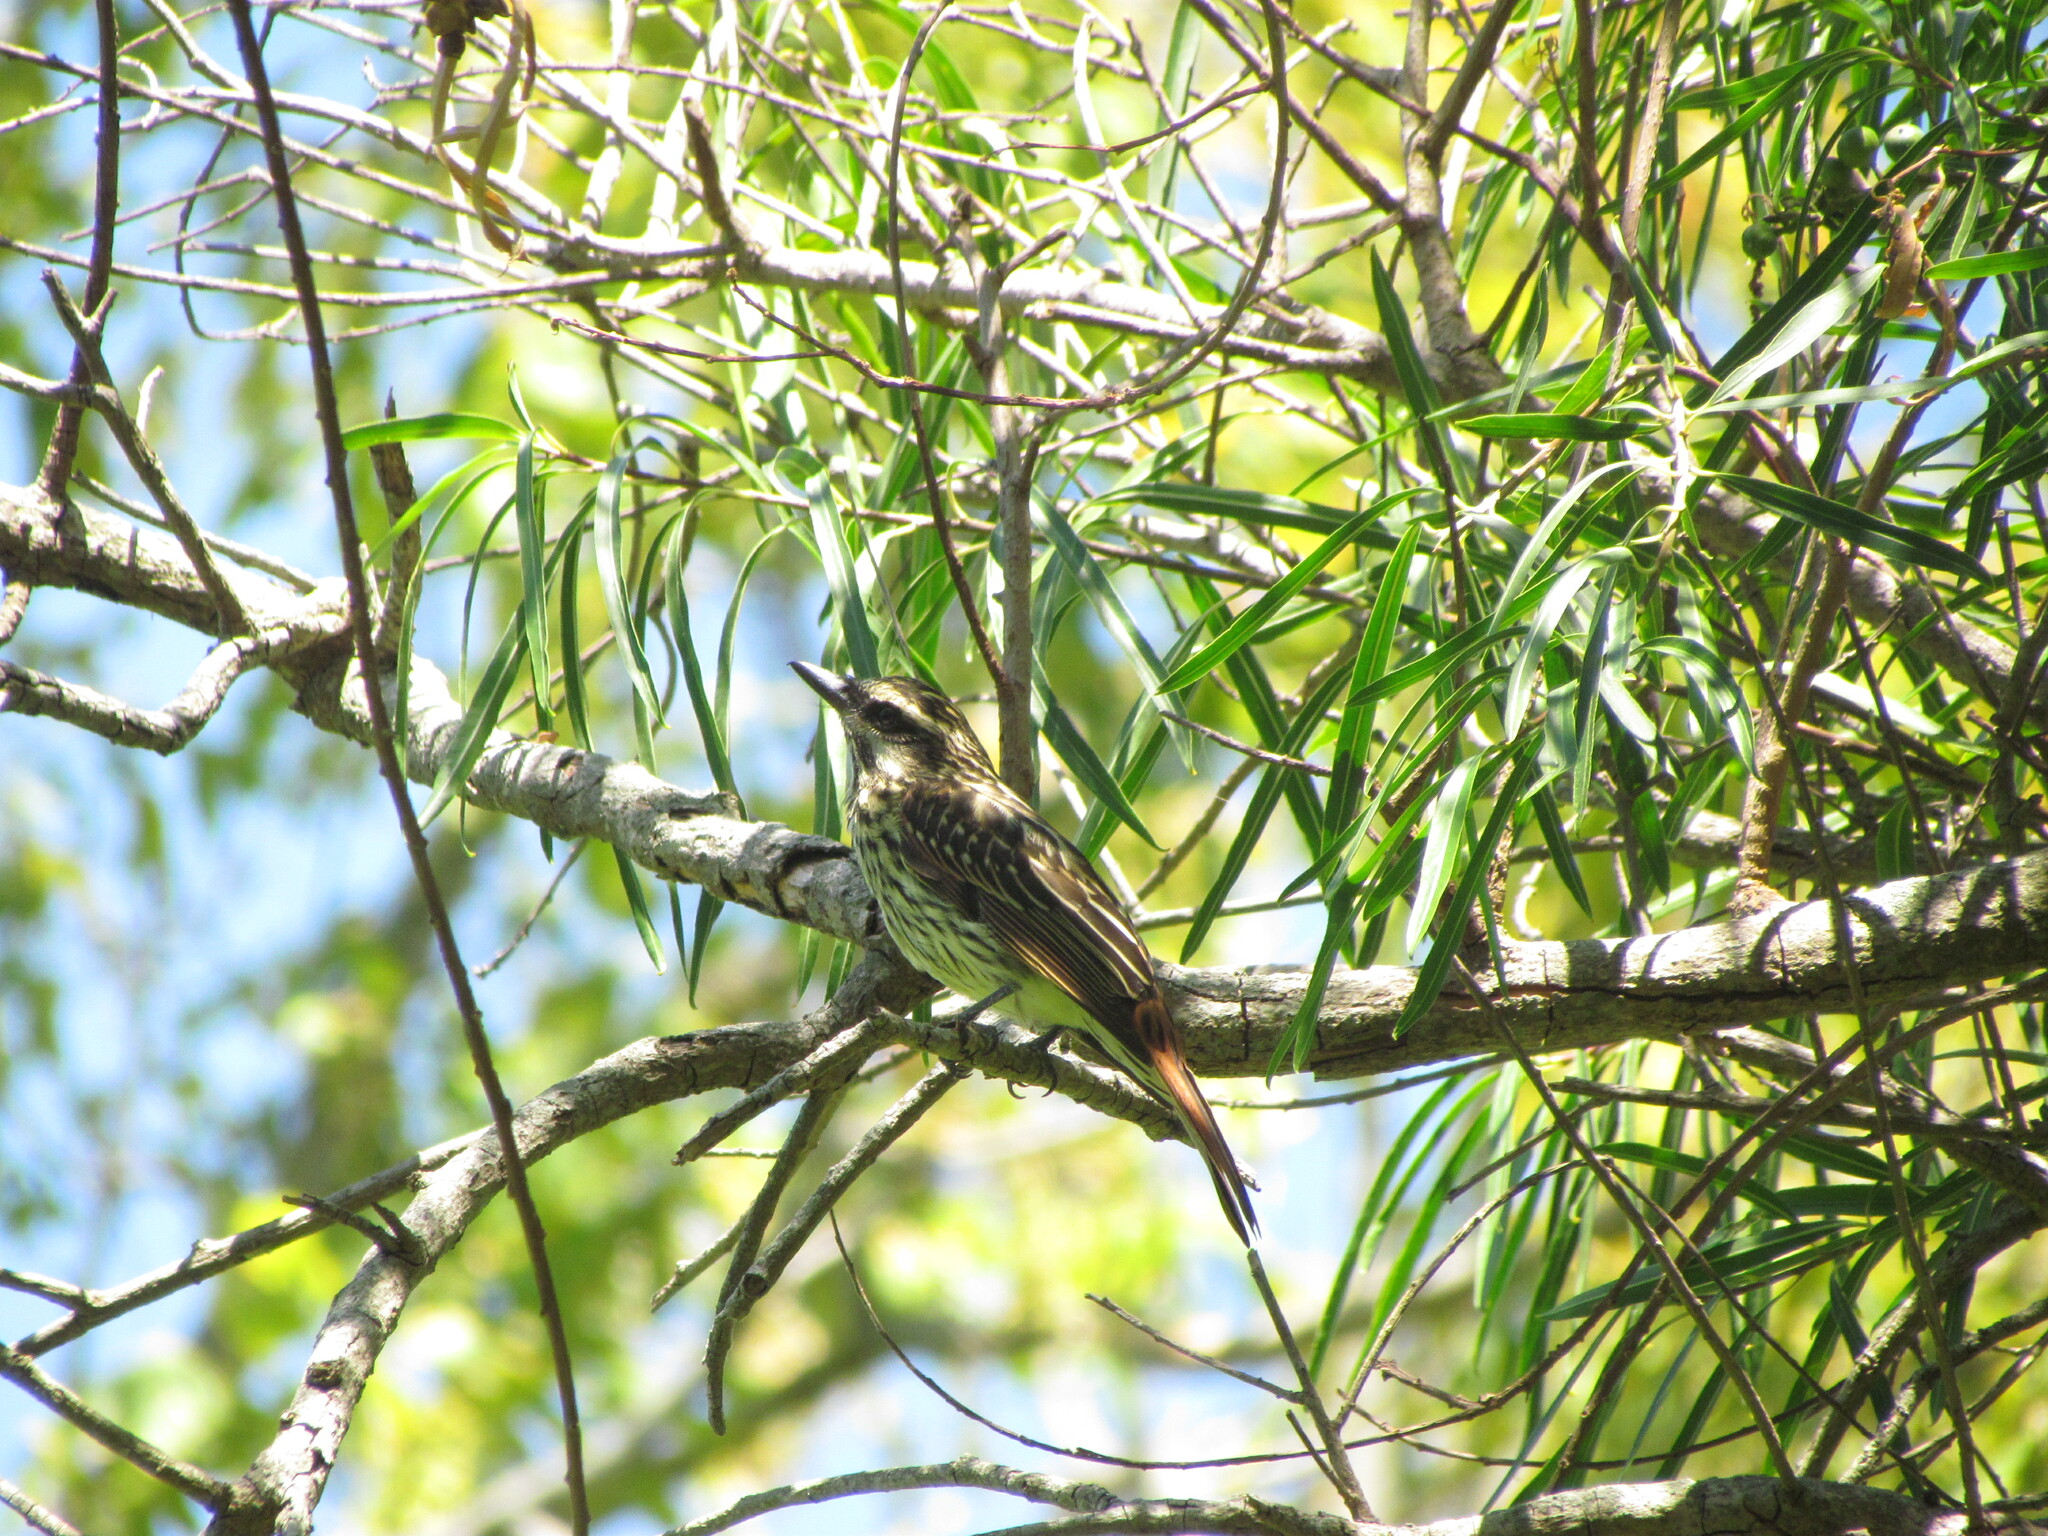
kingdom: Animalia
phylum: Chordata
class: Aves
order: Passeriformes
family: Tyrannidae
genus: Myiodynastes
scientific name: Myiodynastes maculatus
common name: Streaked flycatcher
